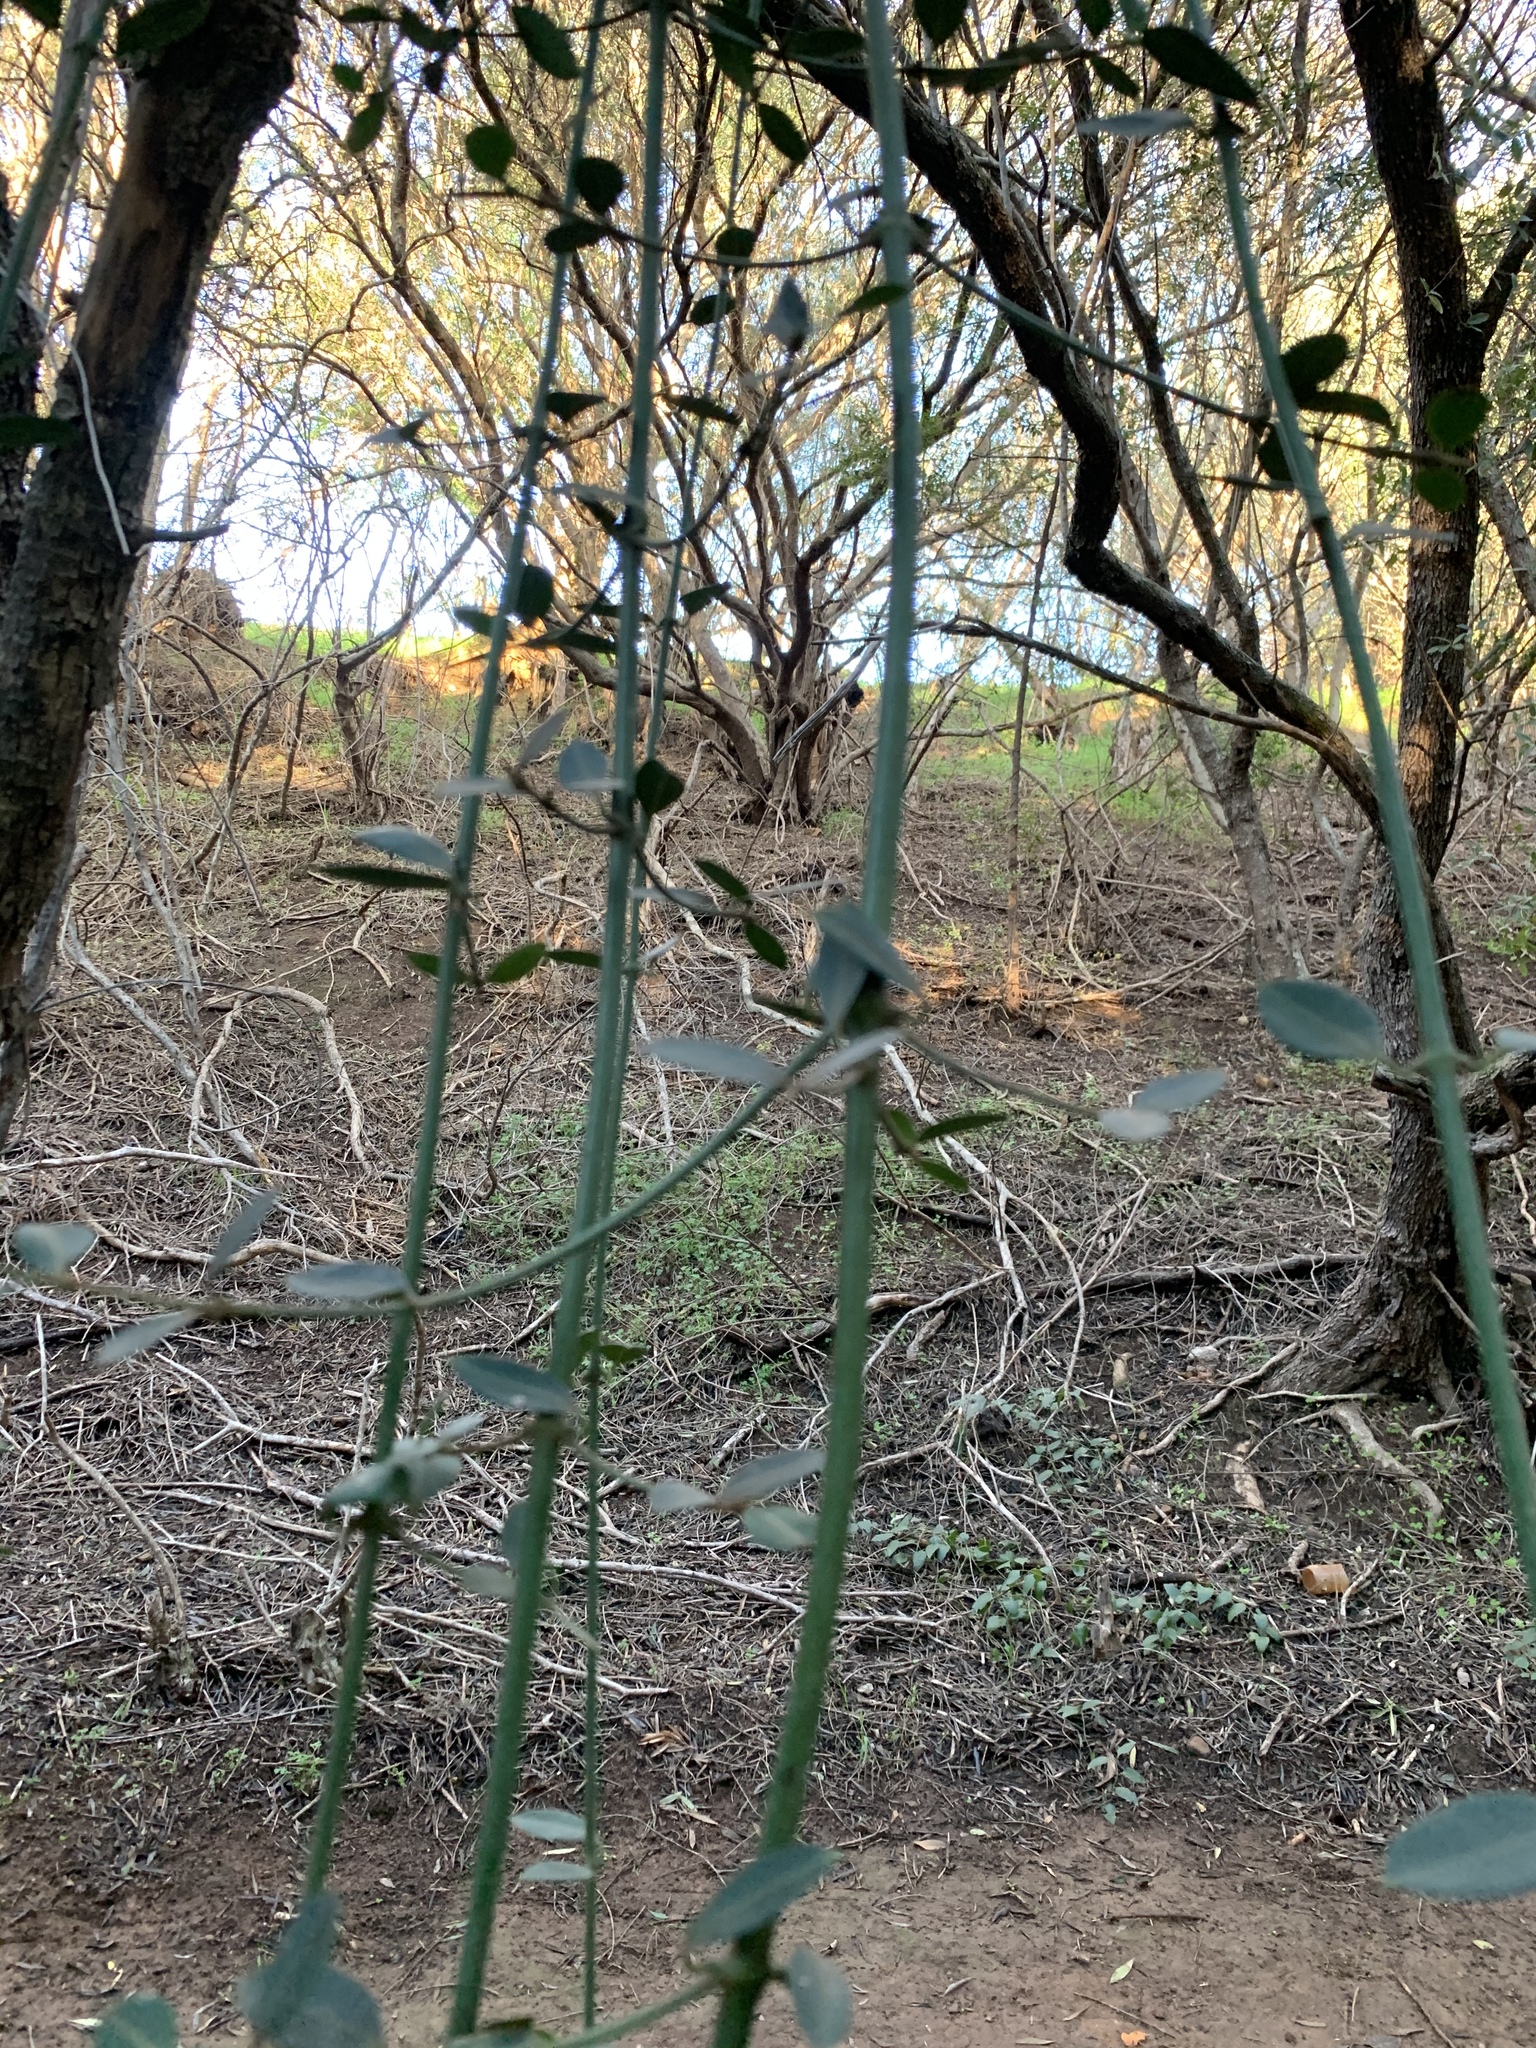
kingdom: Plantae
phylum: Tracheophyta
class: Magnoliopsida
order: Gentianales
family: Apocynaceae
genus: Secamone
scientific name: Secamone alpini
